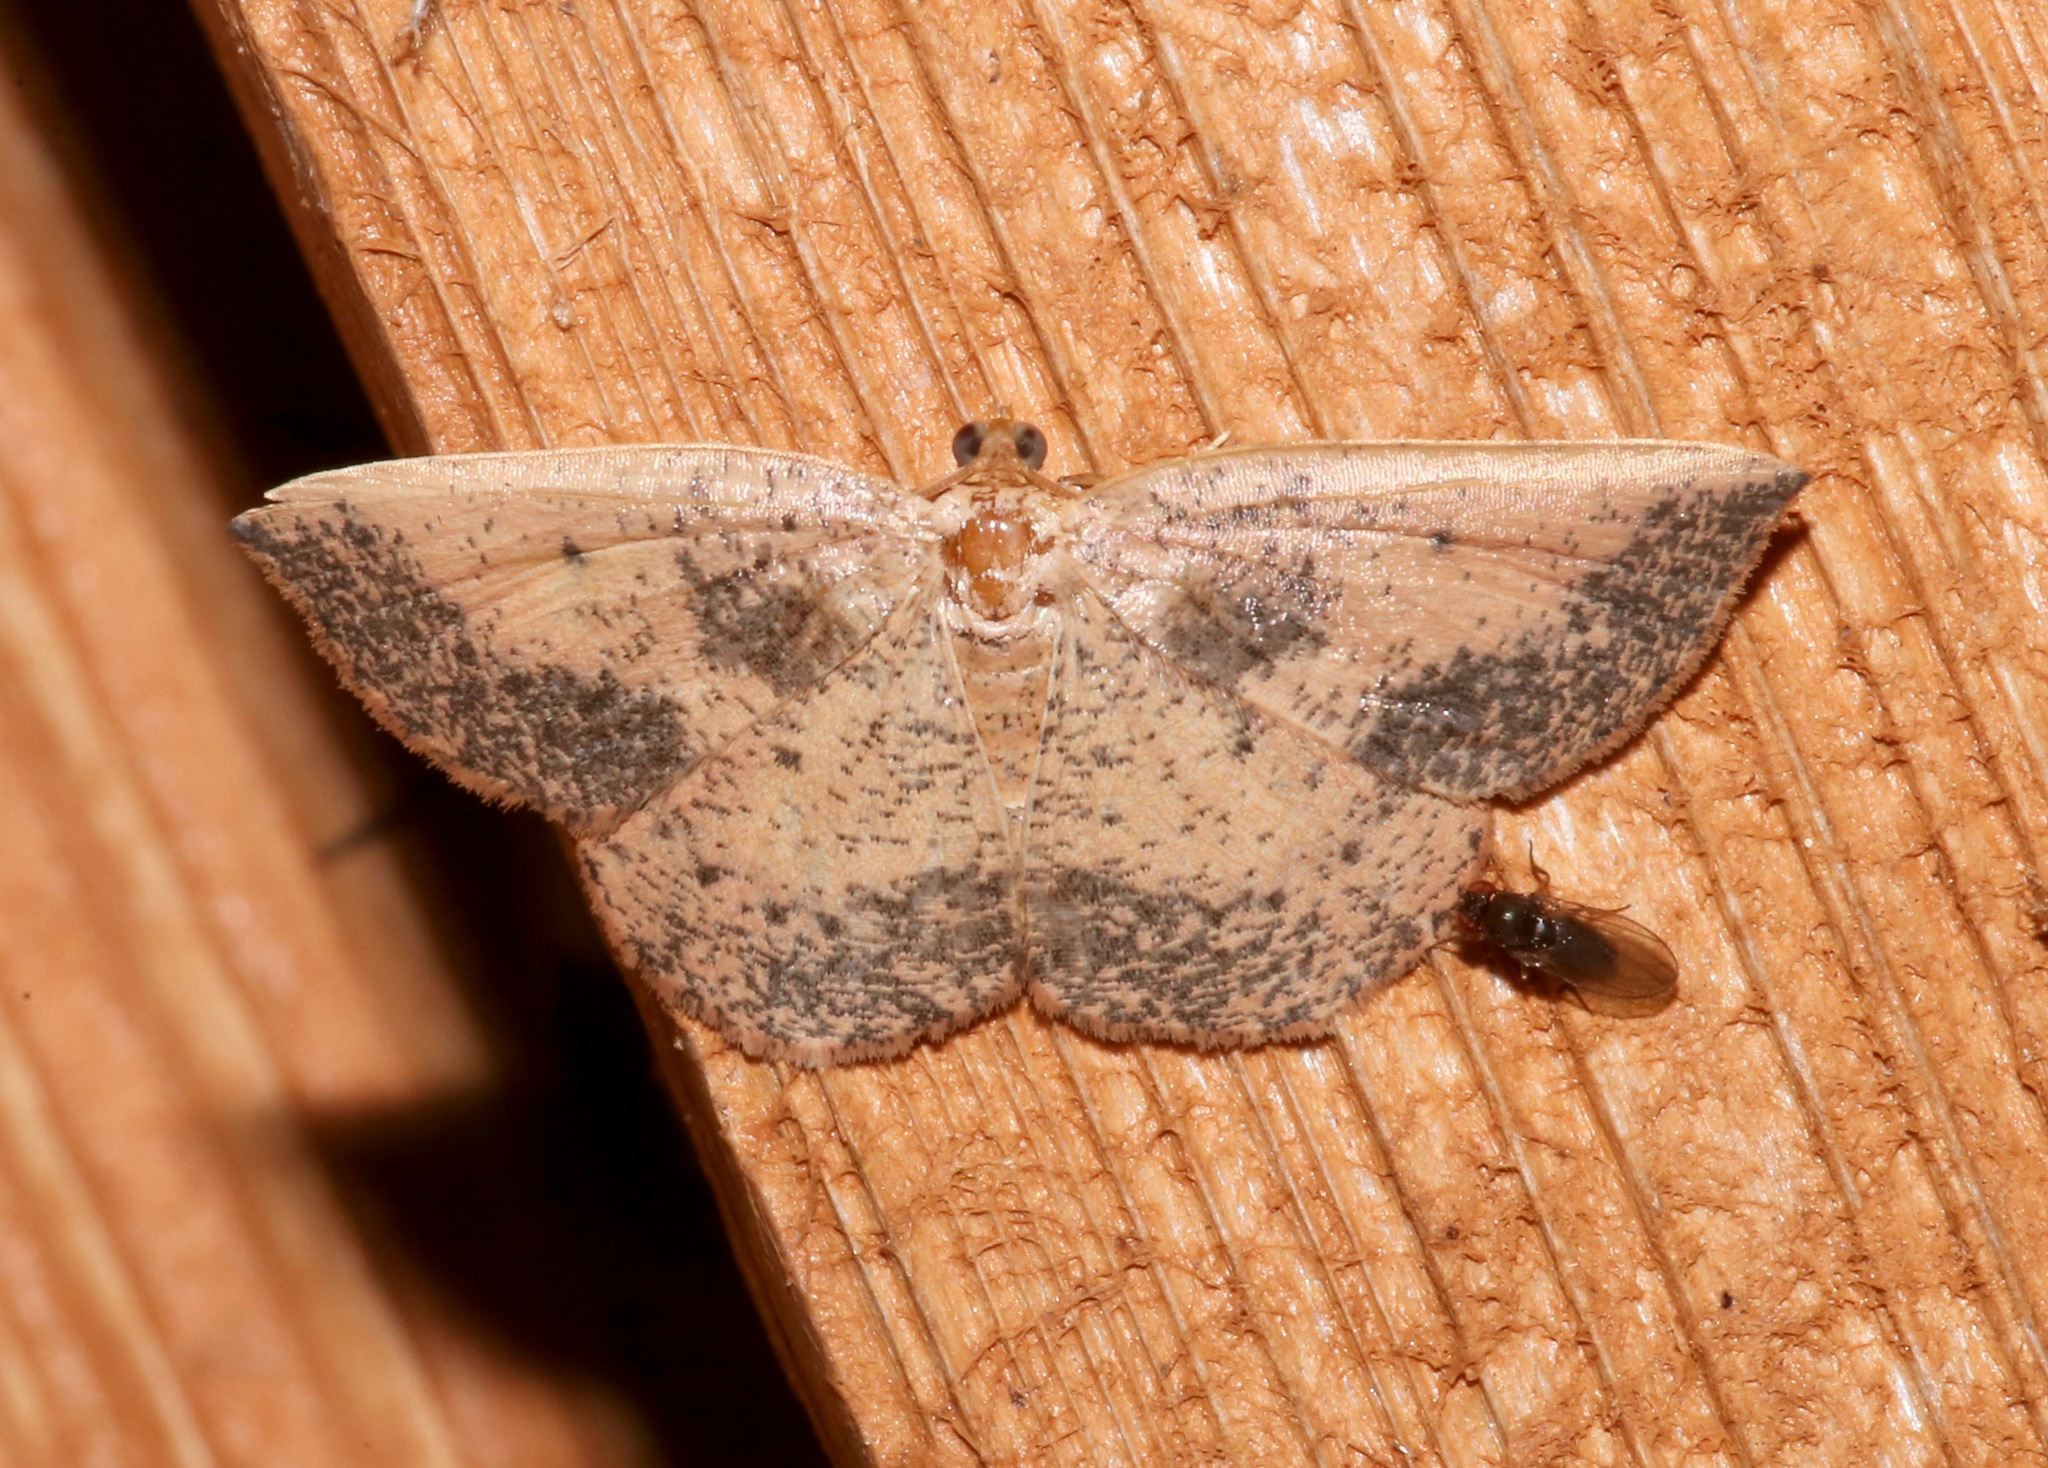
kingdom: Animalia
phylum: Arthropoda
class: Insecta
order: Lepidoptera
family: Geometridae
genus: Episemasia
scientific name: Episemasia solitaria
